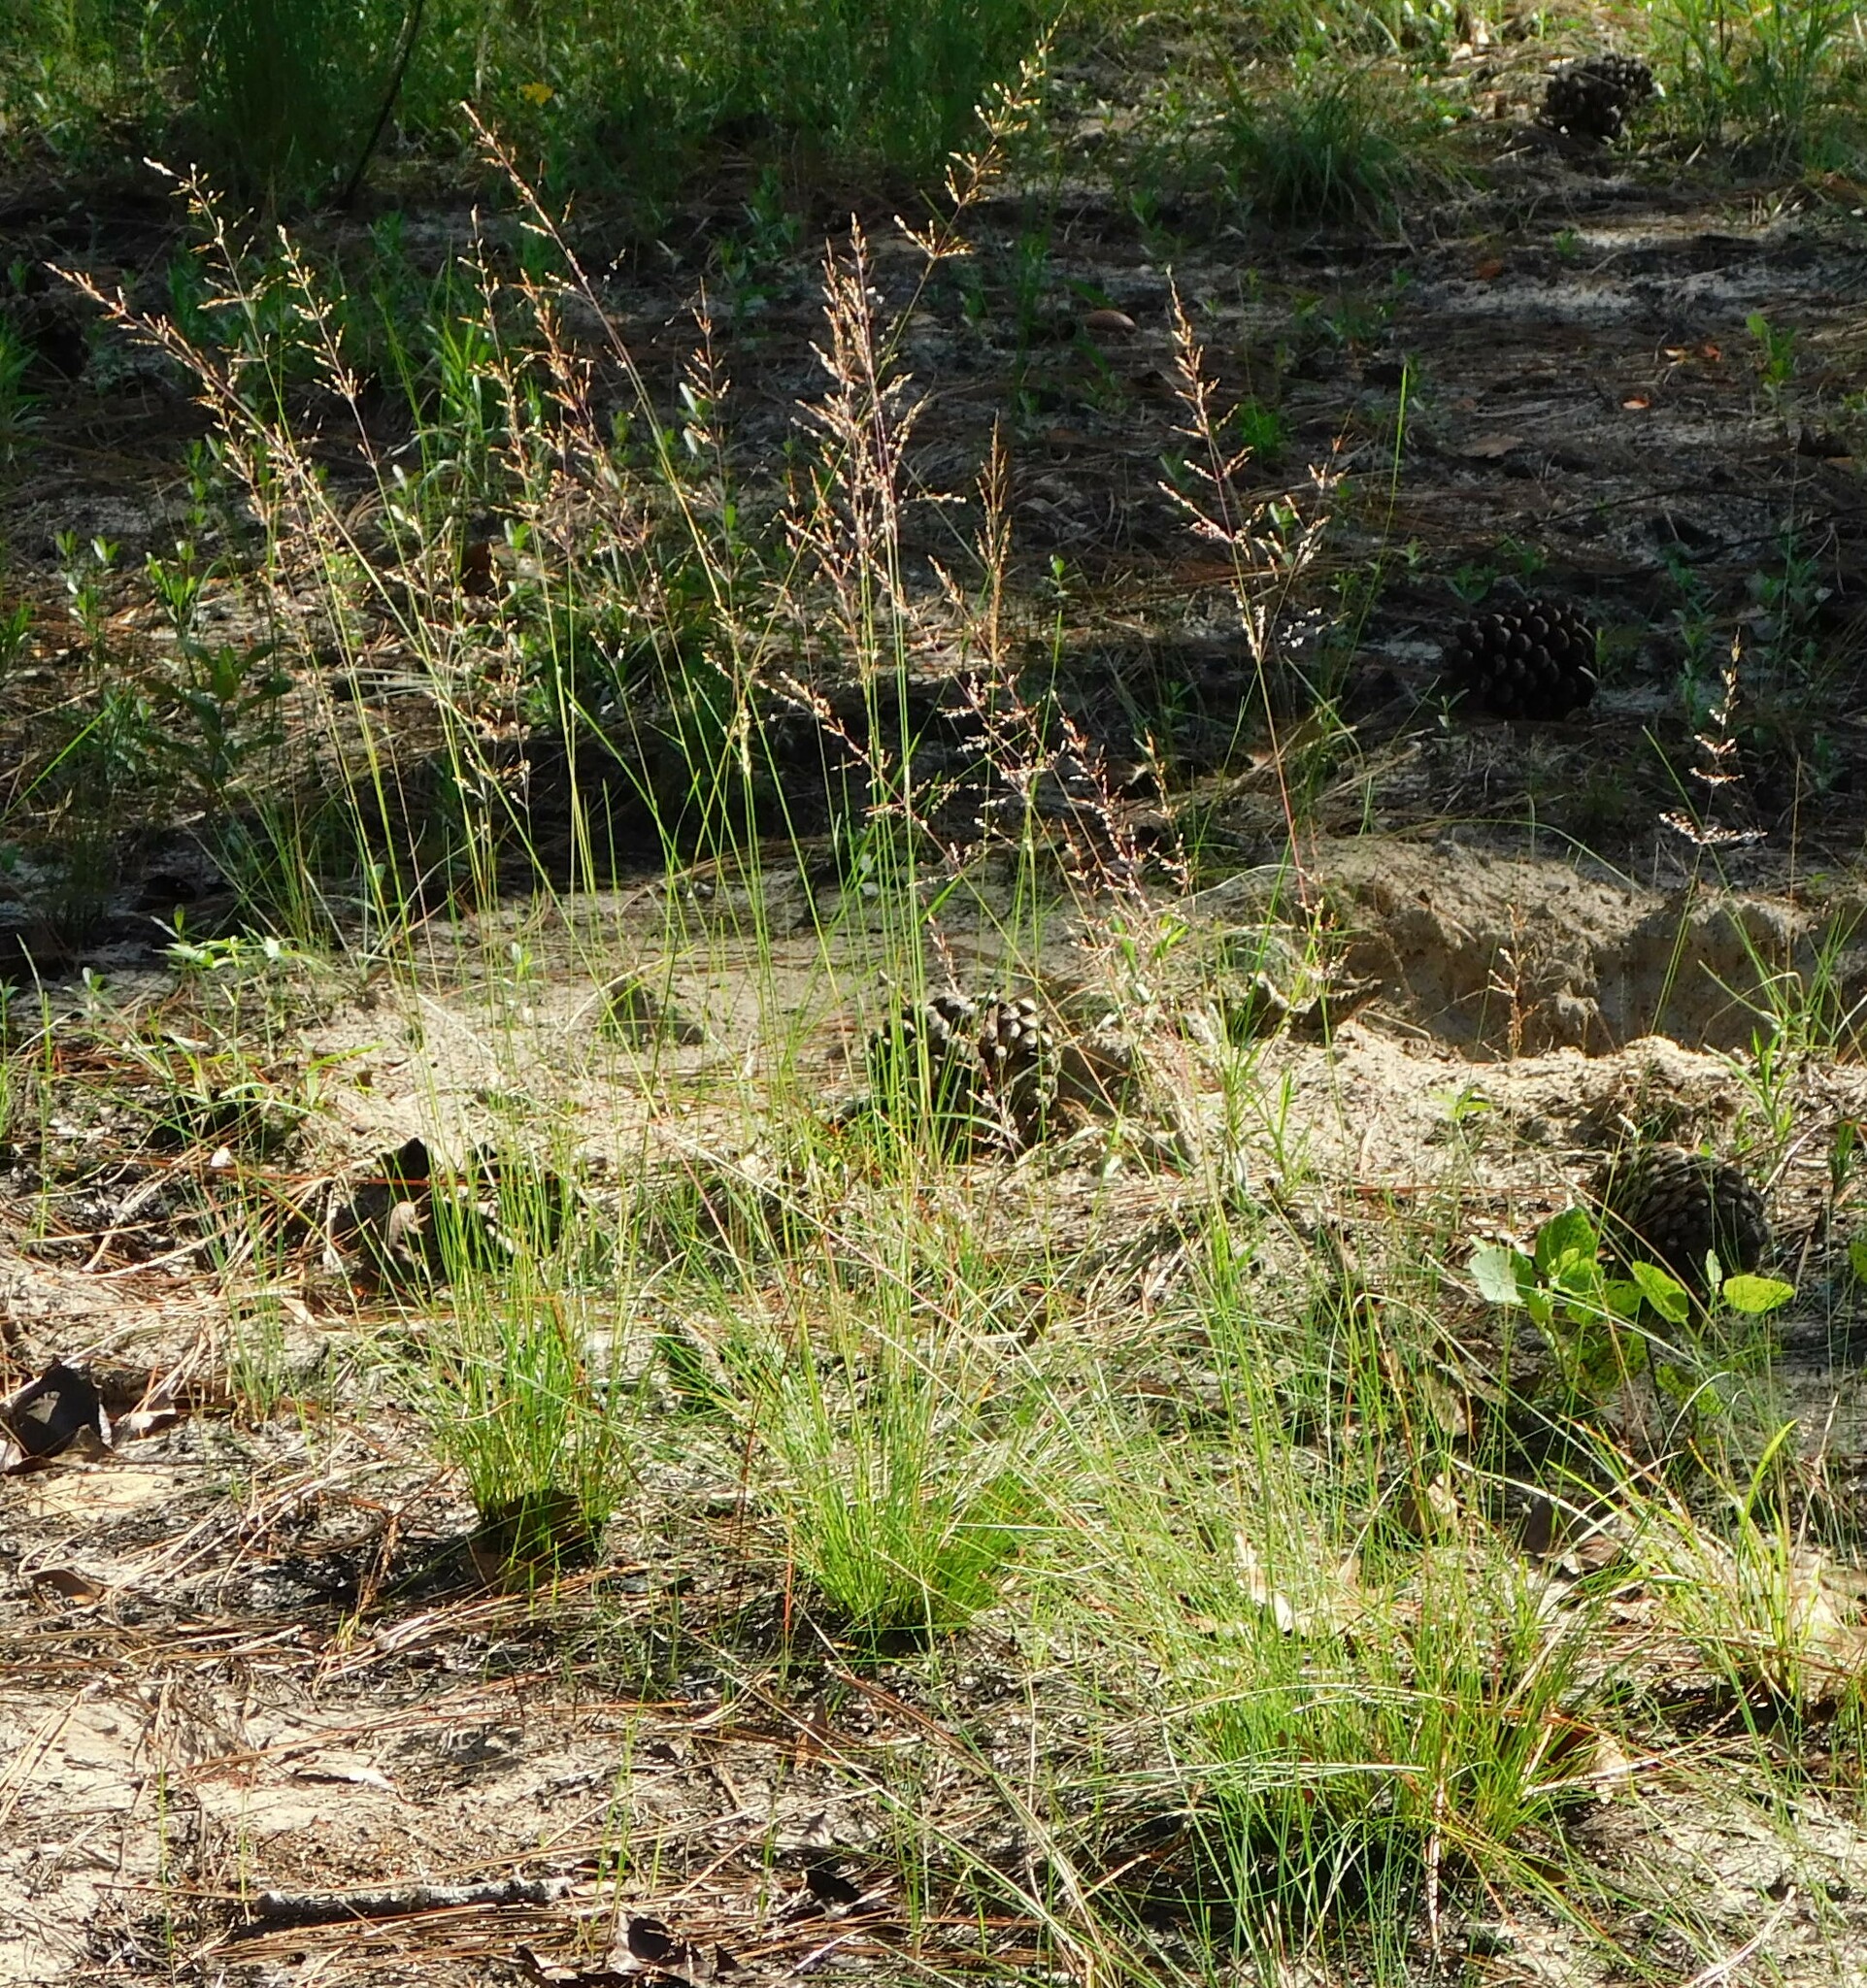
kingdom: Plantae
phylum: Tracheophyta
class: Liliopsida
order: Poales
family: Poaceae
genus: Sporobolus
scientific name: Sporobolus junceus
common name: Lizard grass
